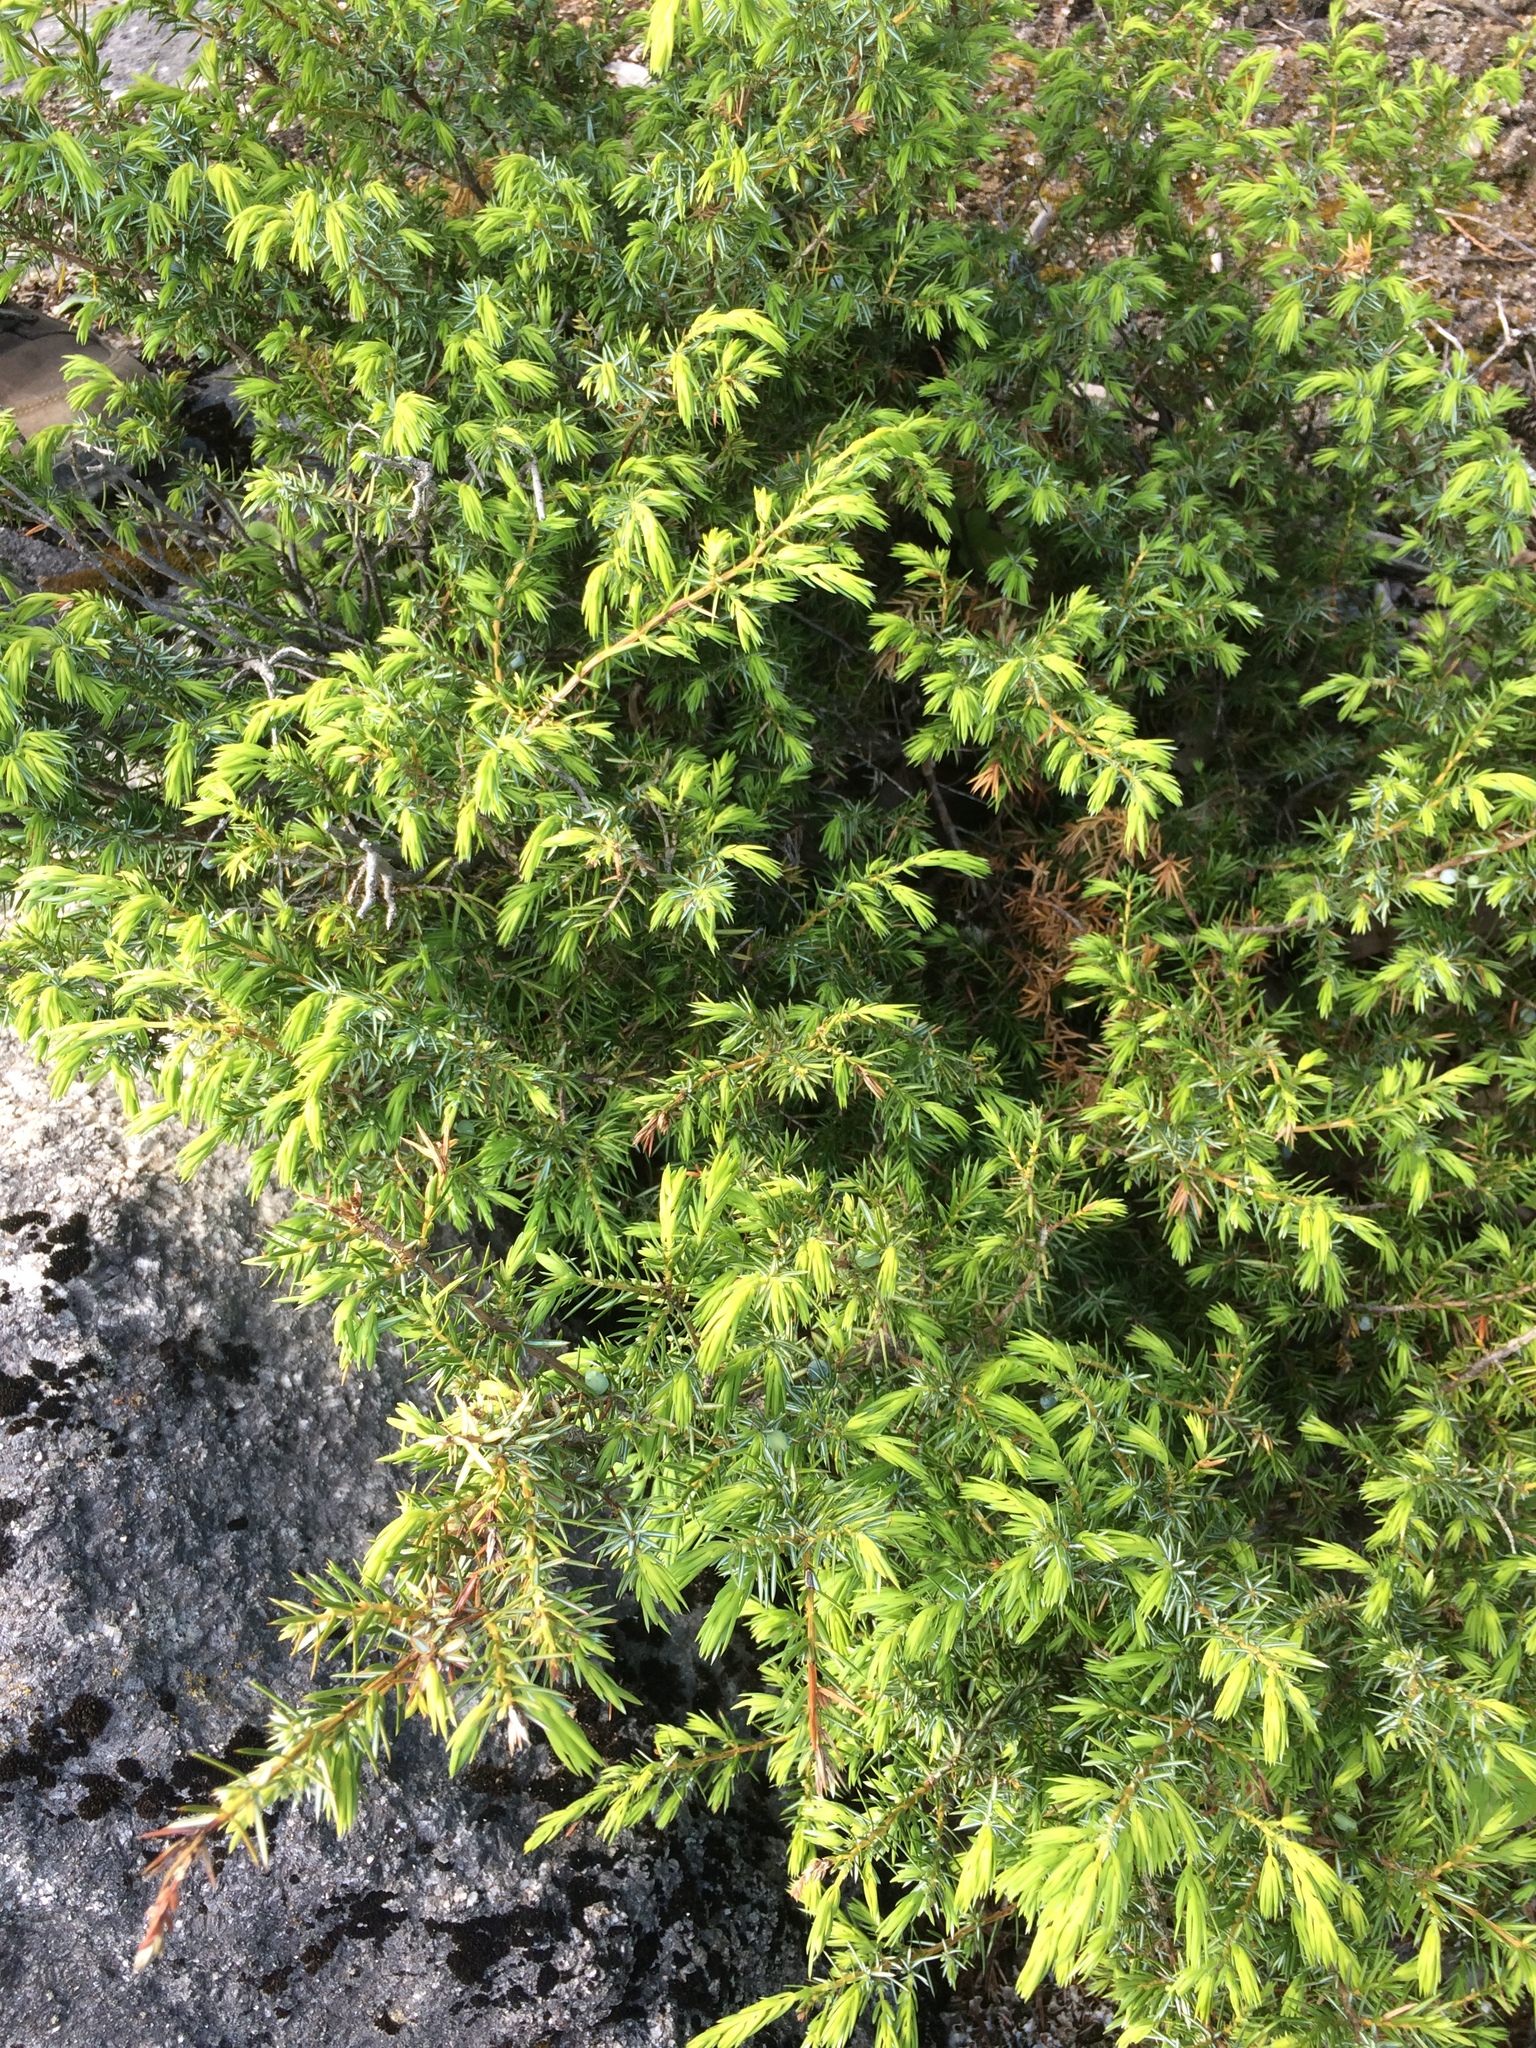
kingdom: Plantae
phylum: Tracheophyta
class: Pinopsida
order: Pinales
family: Cupressaceae
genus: Juniperus
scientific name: Juniperus communis
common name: Common juniper
